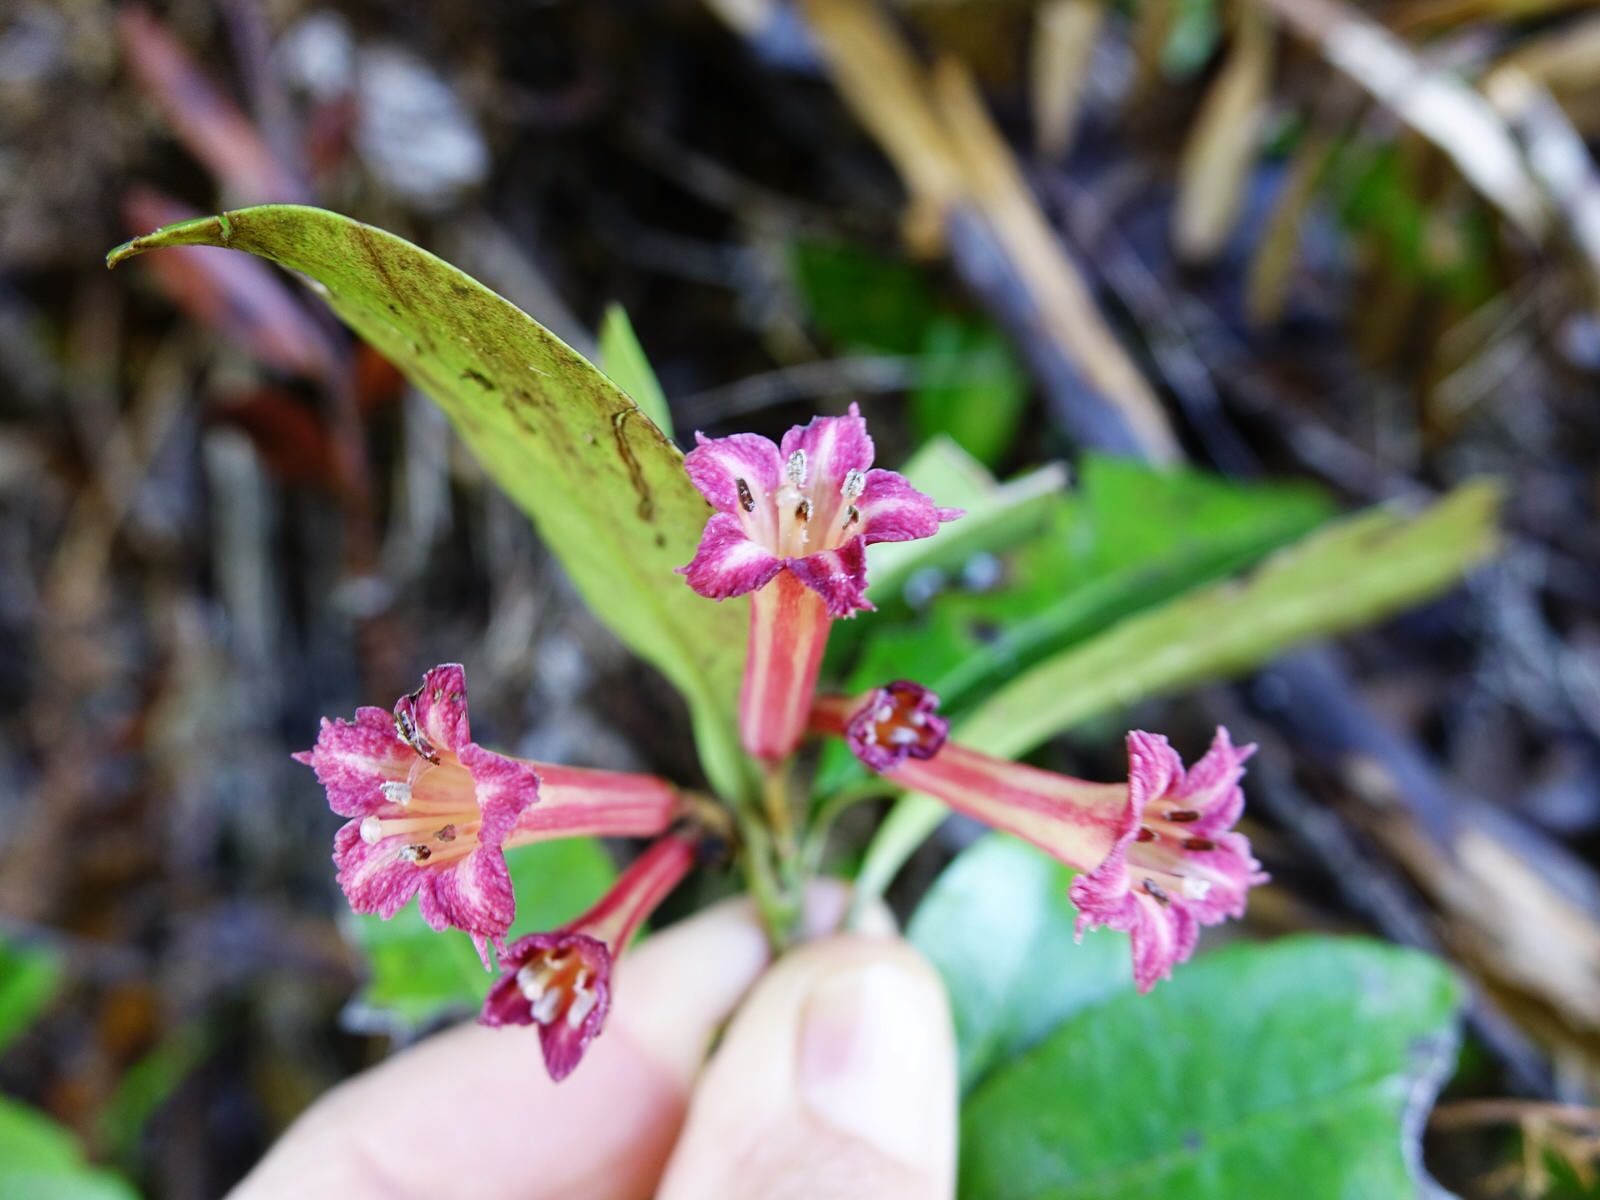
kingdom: Plantae
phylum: Tracheophyta
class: Magnoliopsida
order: Asterales
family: Alseuosmiaceae
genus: Alseuosmia
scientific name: Alseuosmia macrophylla
